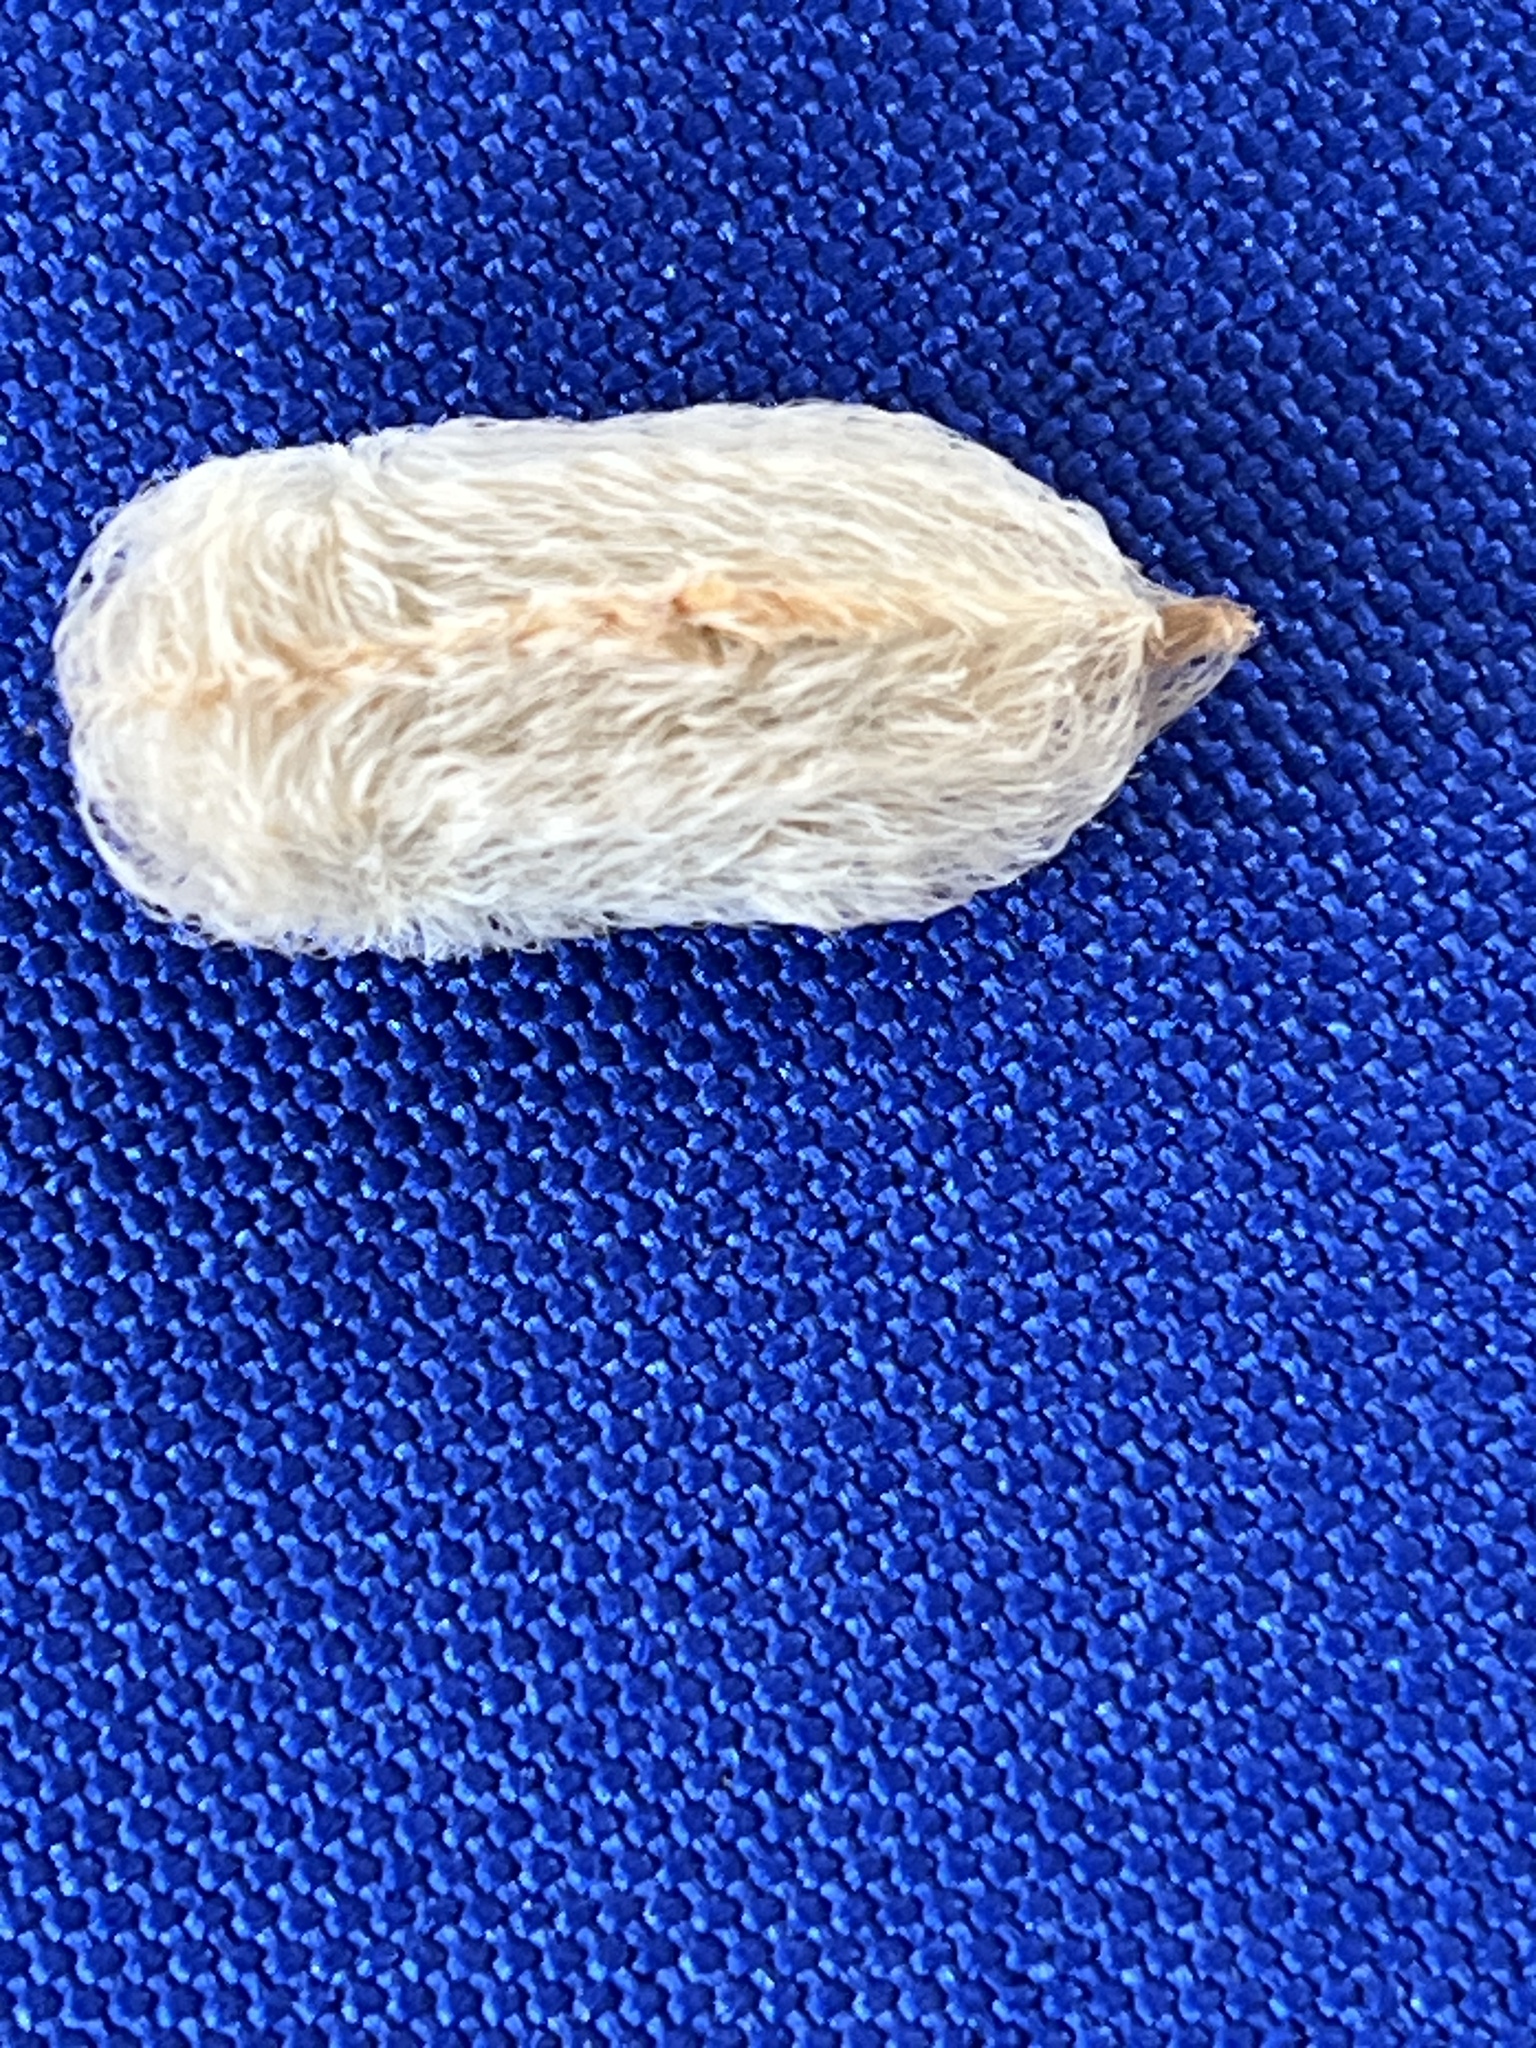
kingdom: Animalia
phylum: Arthropoda
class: Insecta
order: Lepidoptera
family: Megalopygidae
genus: Megalopyge
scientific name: Megalopyge opercularis
